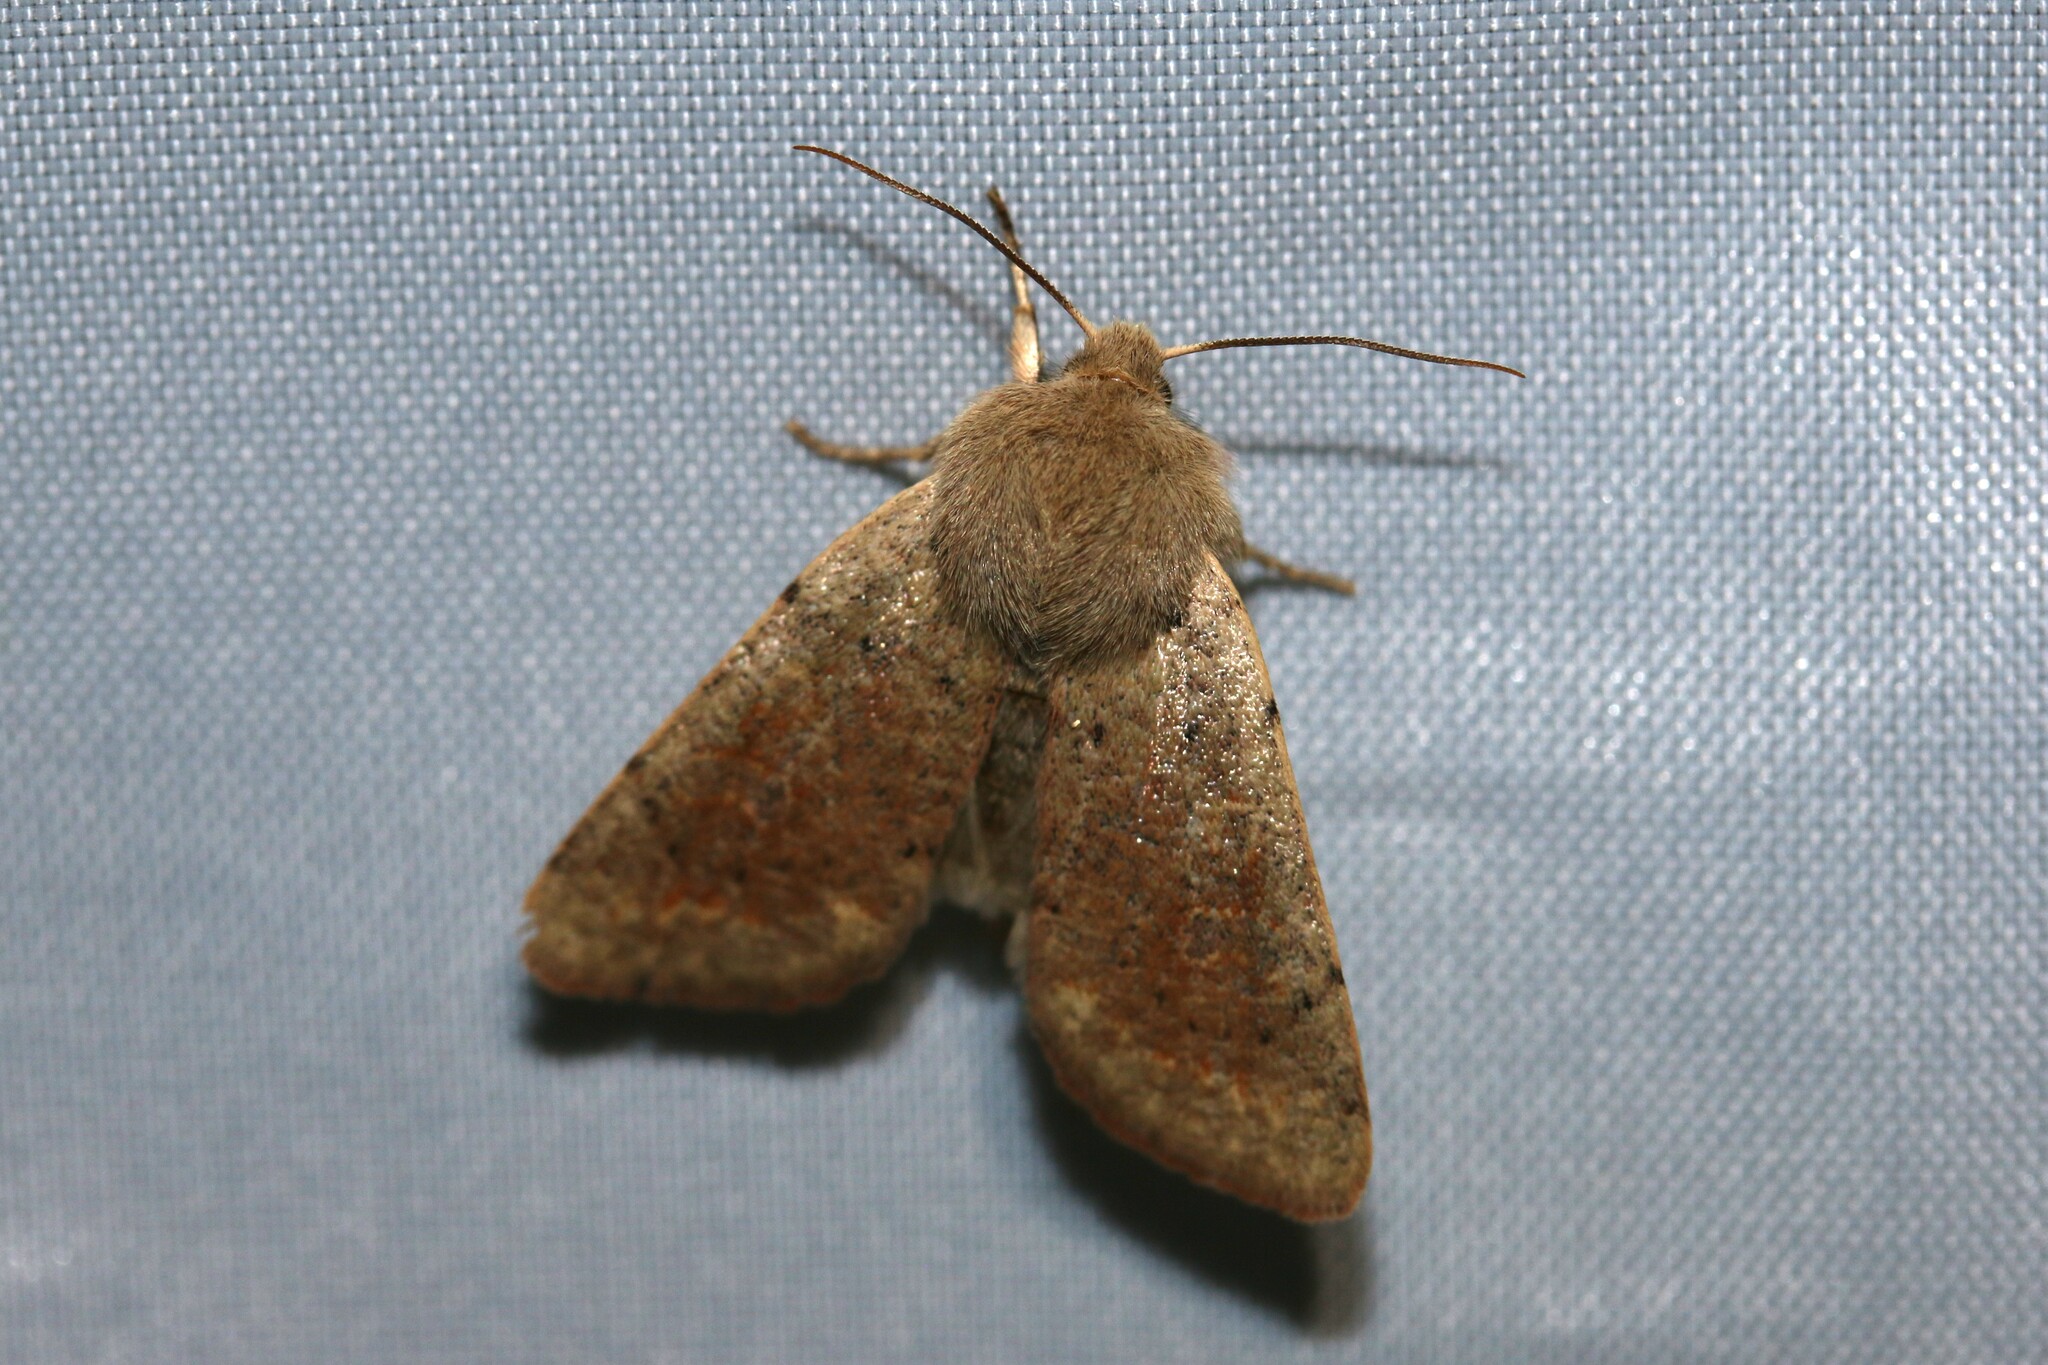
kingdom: Animalia
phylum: Arthropoda
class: Insecta
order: Lepidoptera
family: Noctuidae
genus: Orthosia
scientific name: Orthosia cruda
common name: Small quaker
